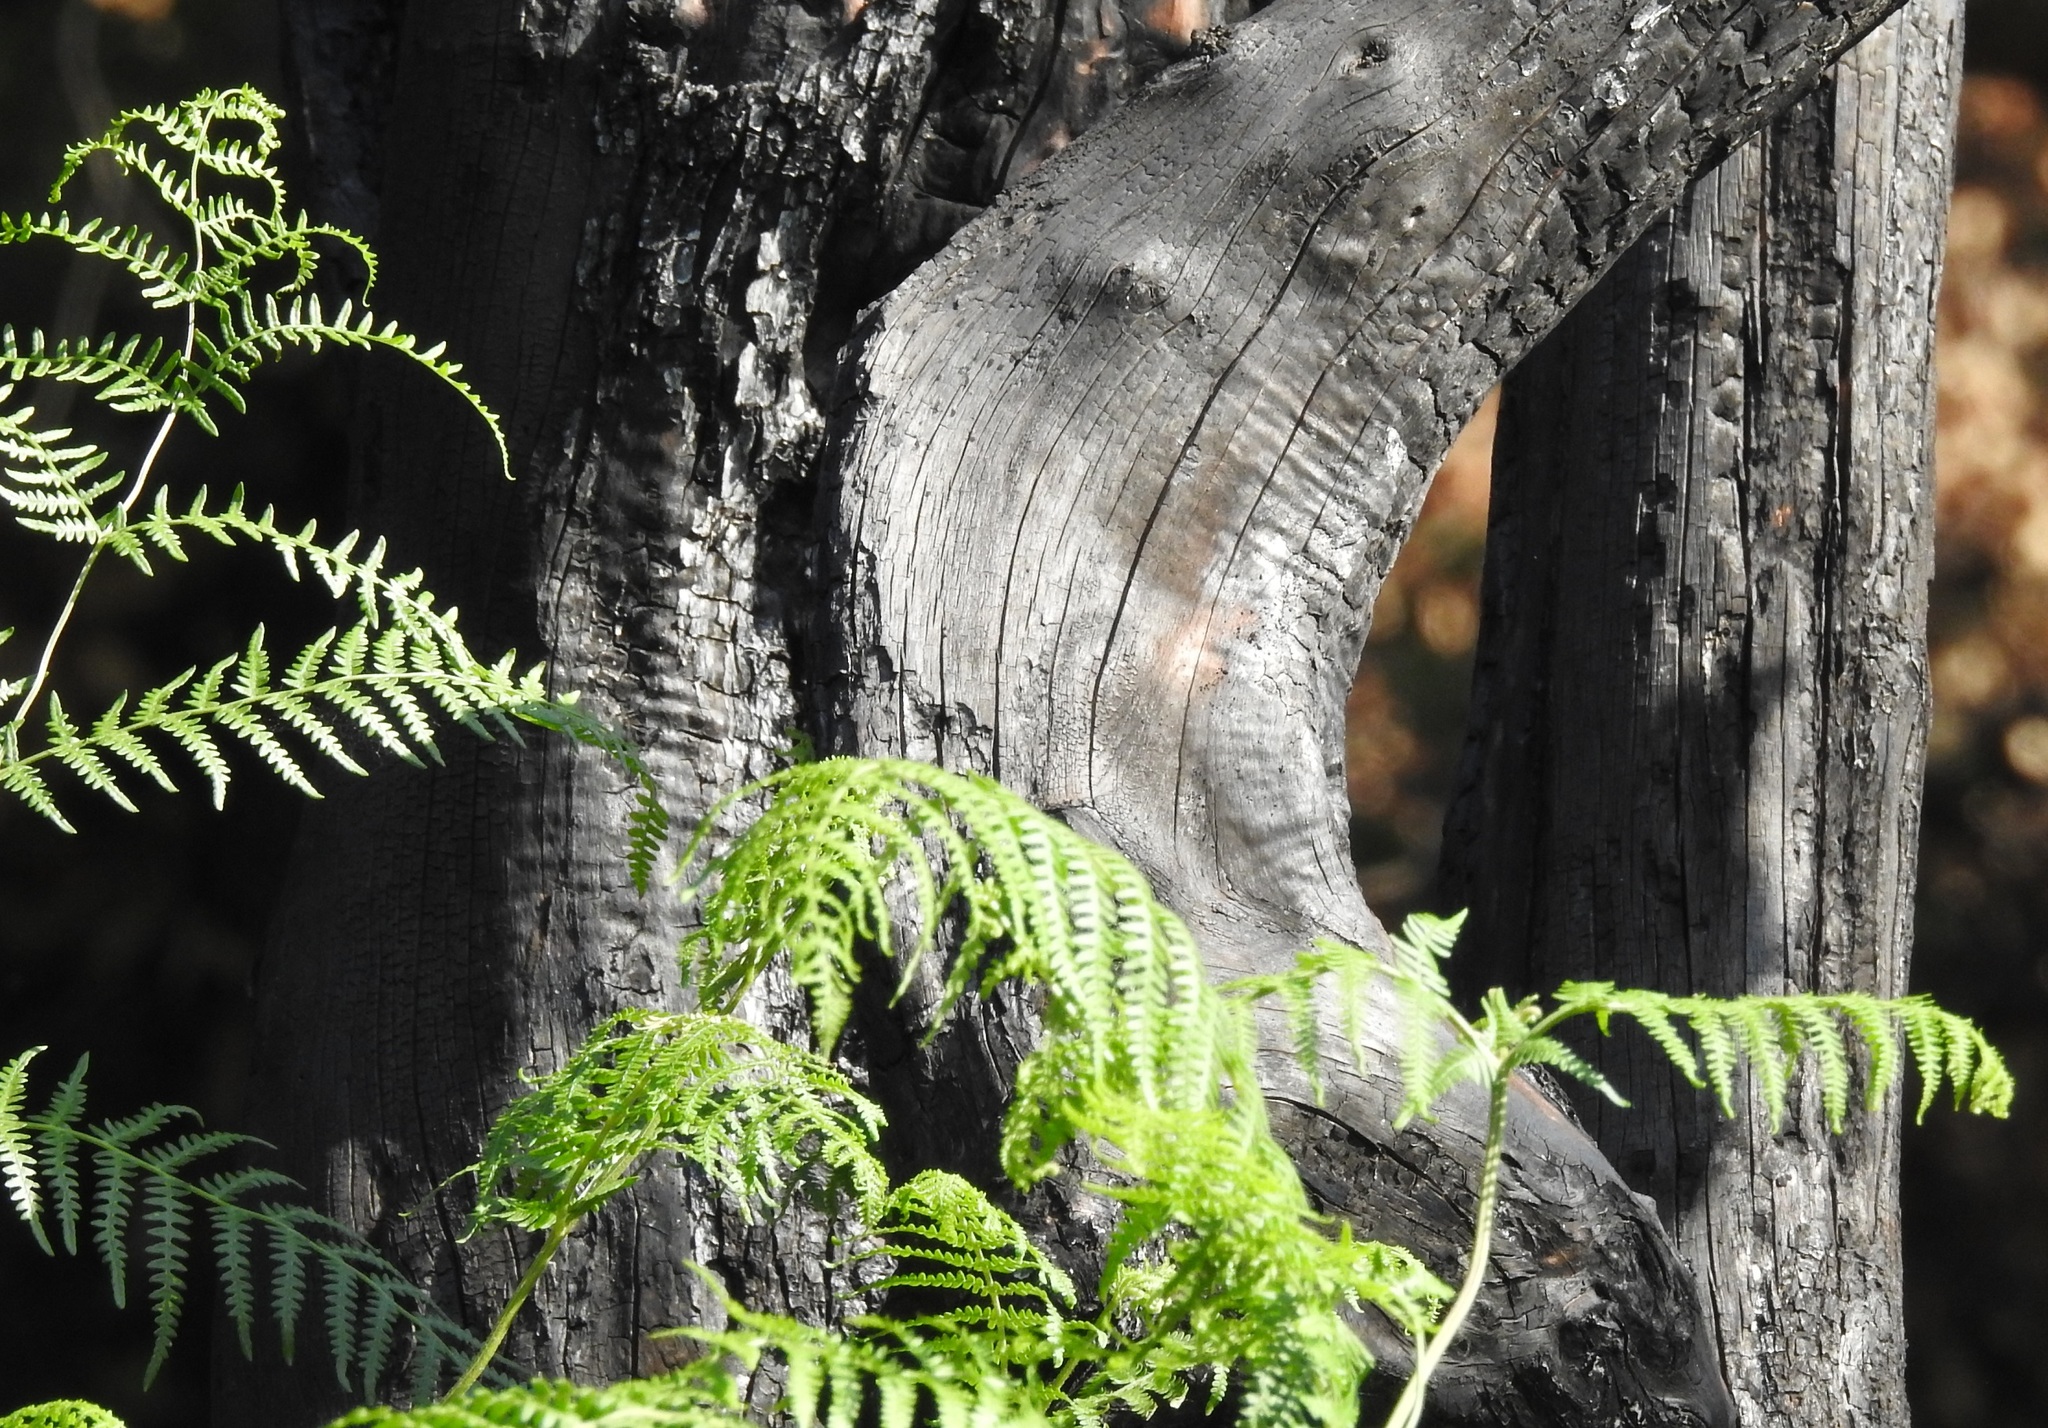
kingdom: Plantae
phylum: Tracheophyta
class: Polypodiopsida
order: Polypodiales
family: Dennstaedtiaceae
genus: Pteridium
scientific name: Pteridium aquilinum
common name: Bracken
